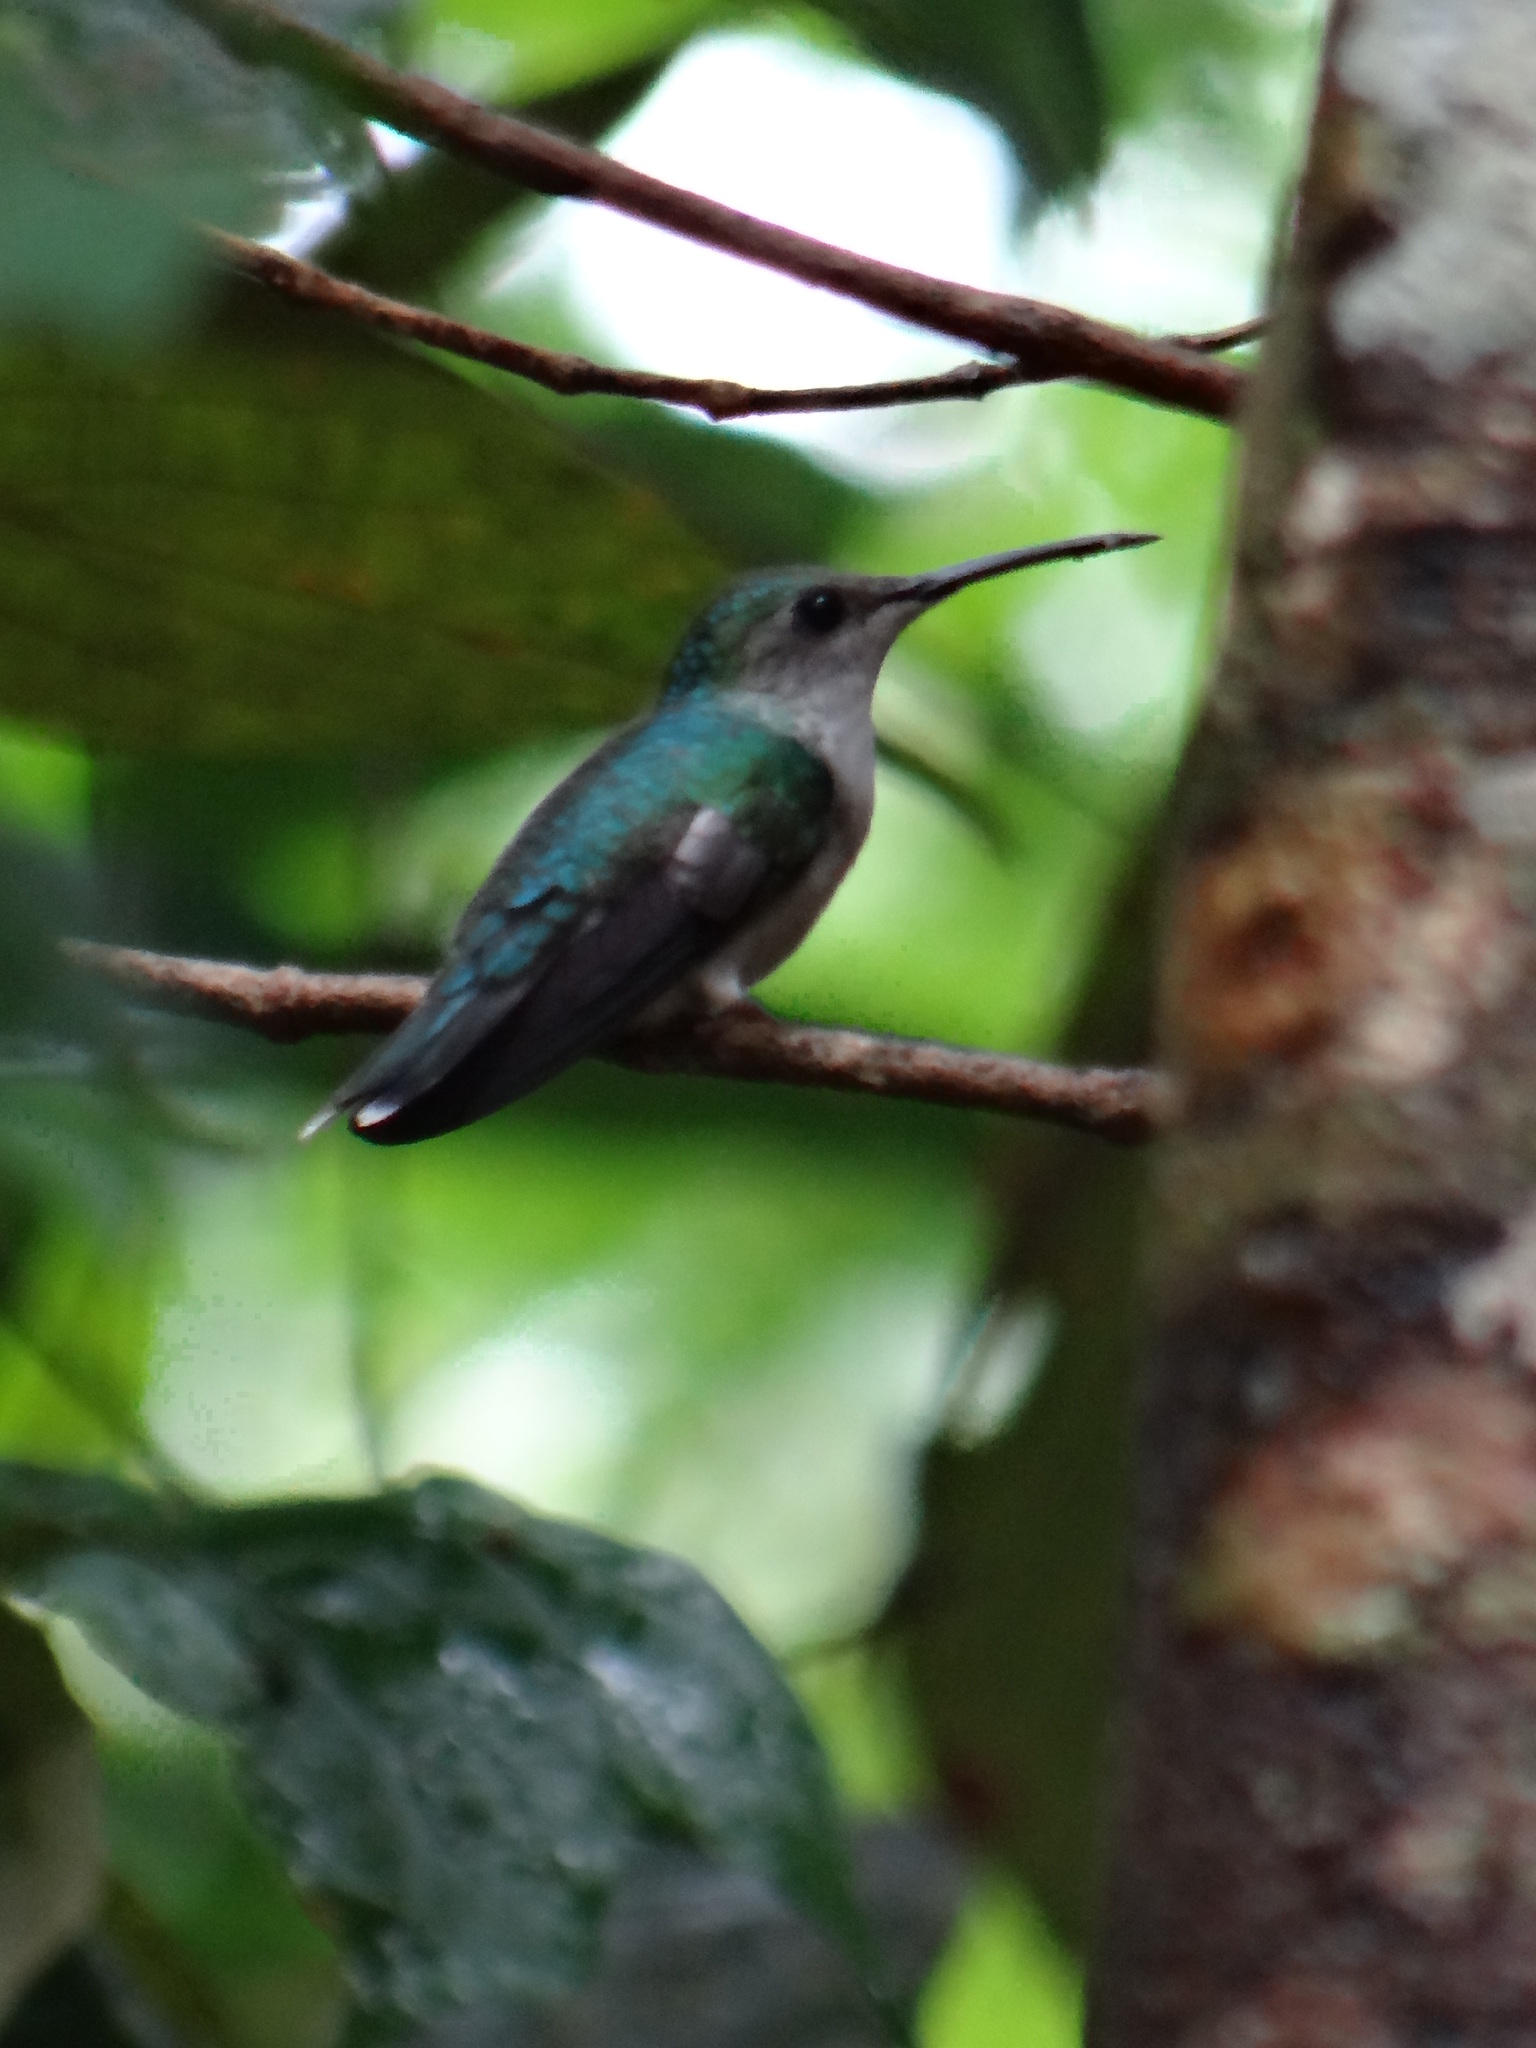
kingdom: Animalia
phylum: Chordata
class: Aves
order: Apodiformes
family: Trochilidae
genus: Thalurania
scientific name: Thalurania furcata
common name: Fork-tailed woodnymph
